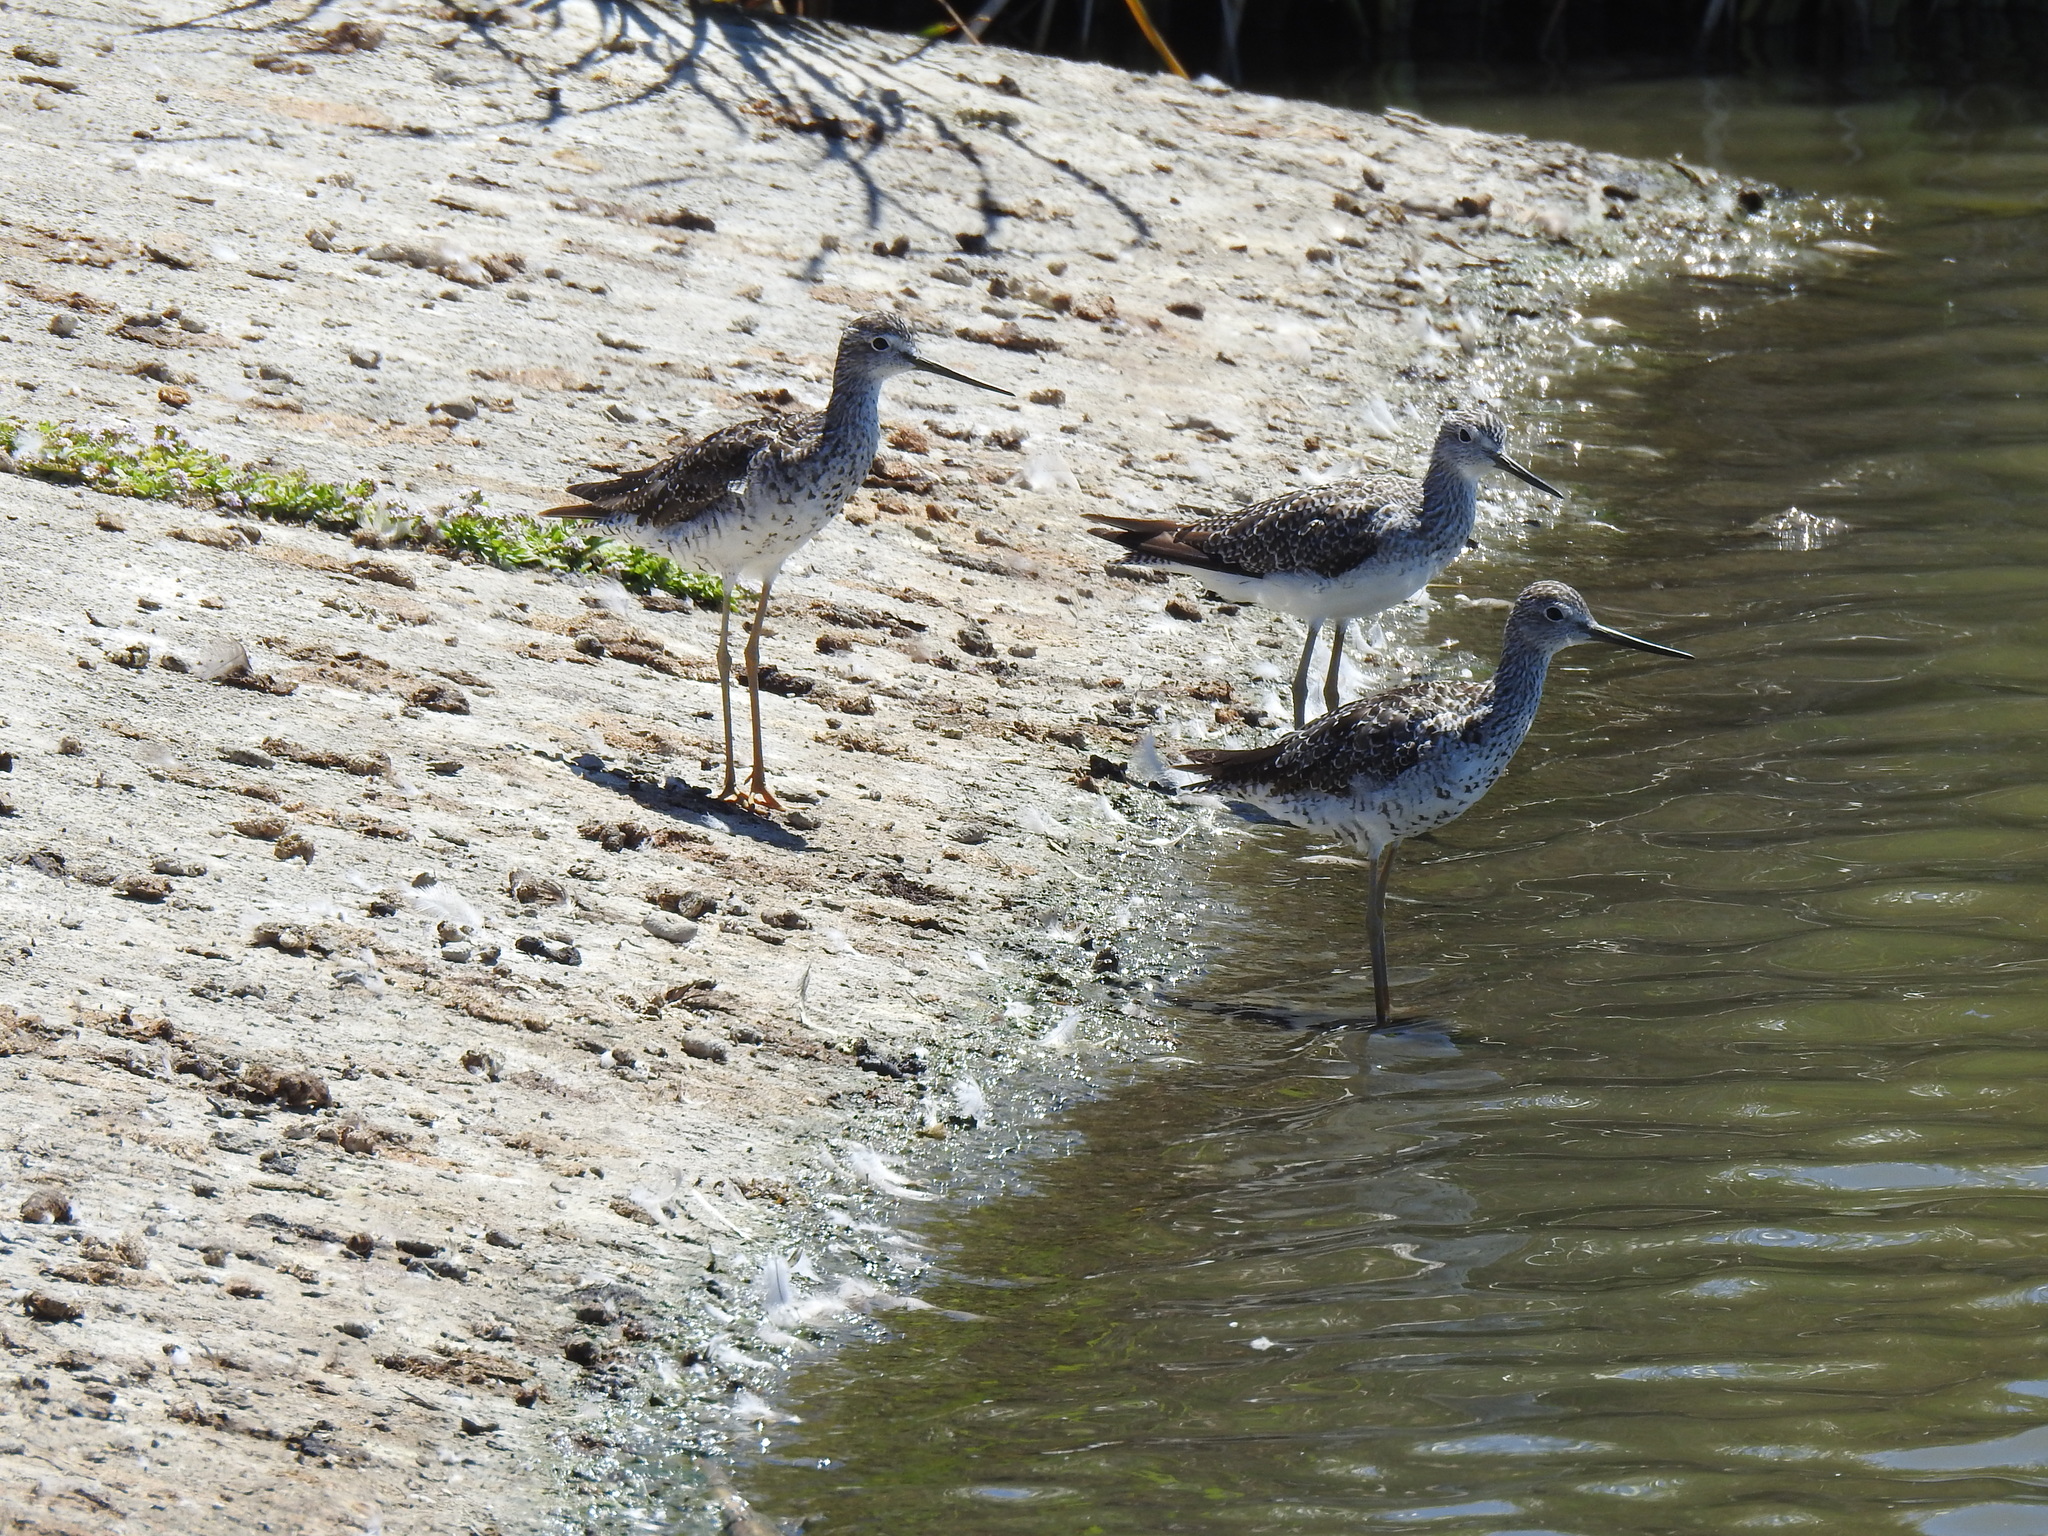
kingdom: Animalia
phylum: Chordata
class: Aves
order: Charadriiformes
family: Scolopacidae
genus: Tringa
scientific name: Tringa melanoleuca
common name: Greater yellowlegs
